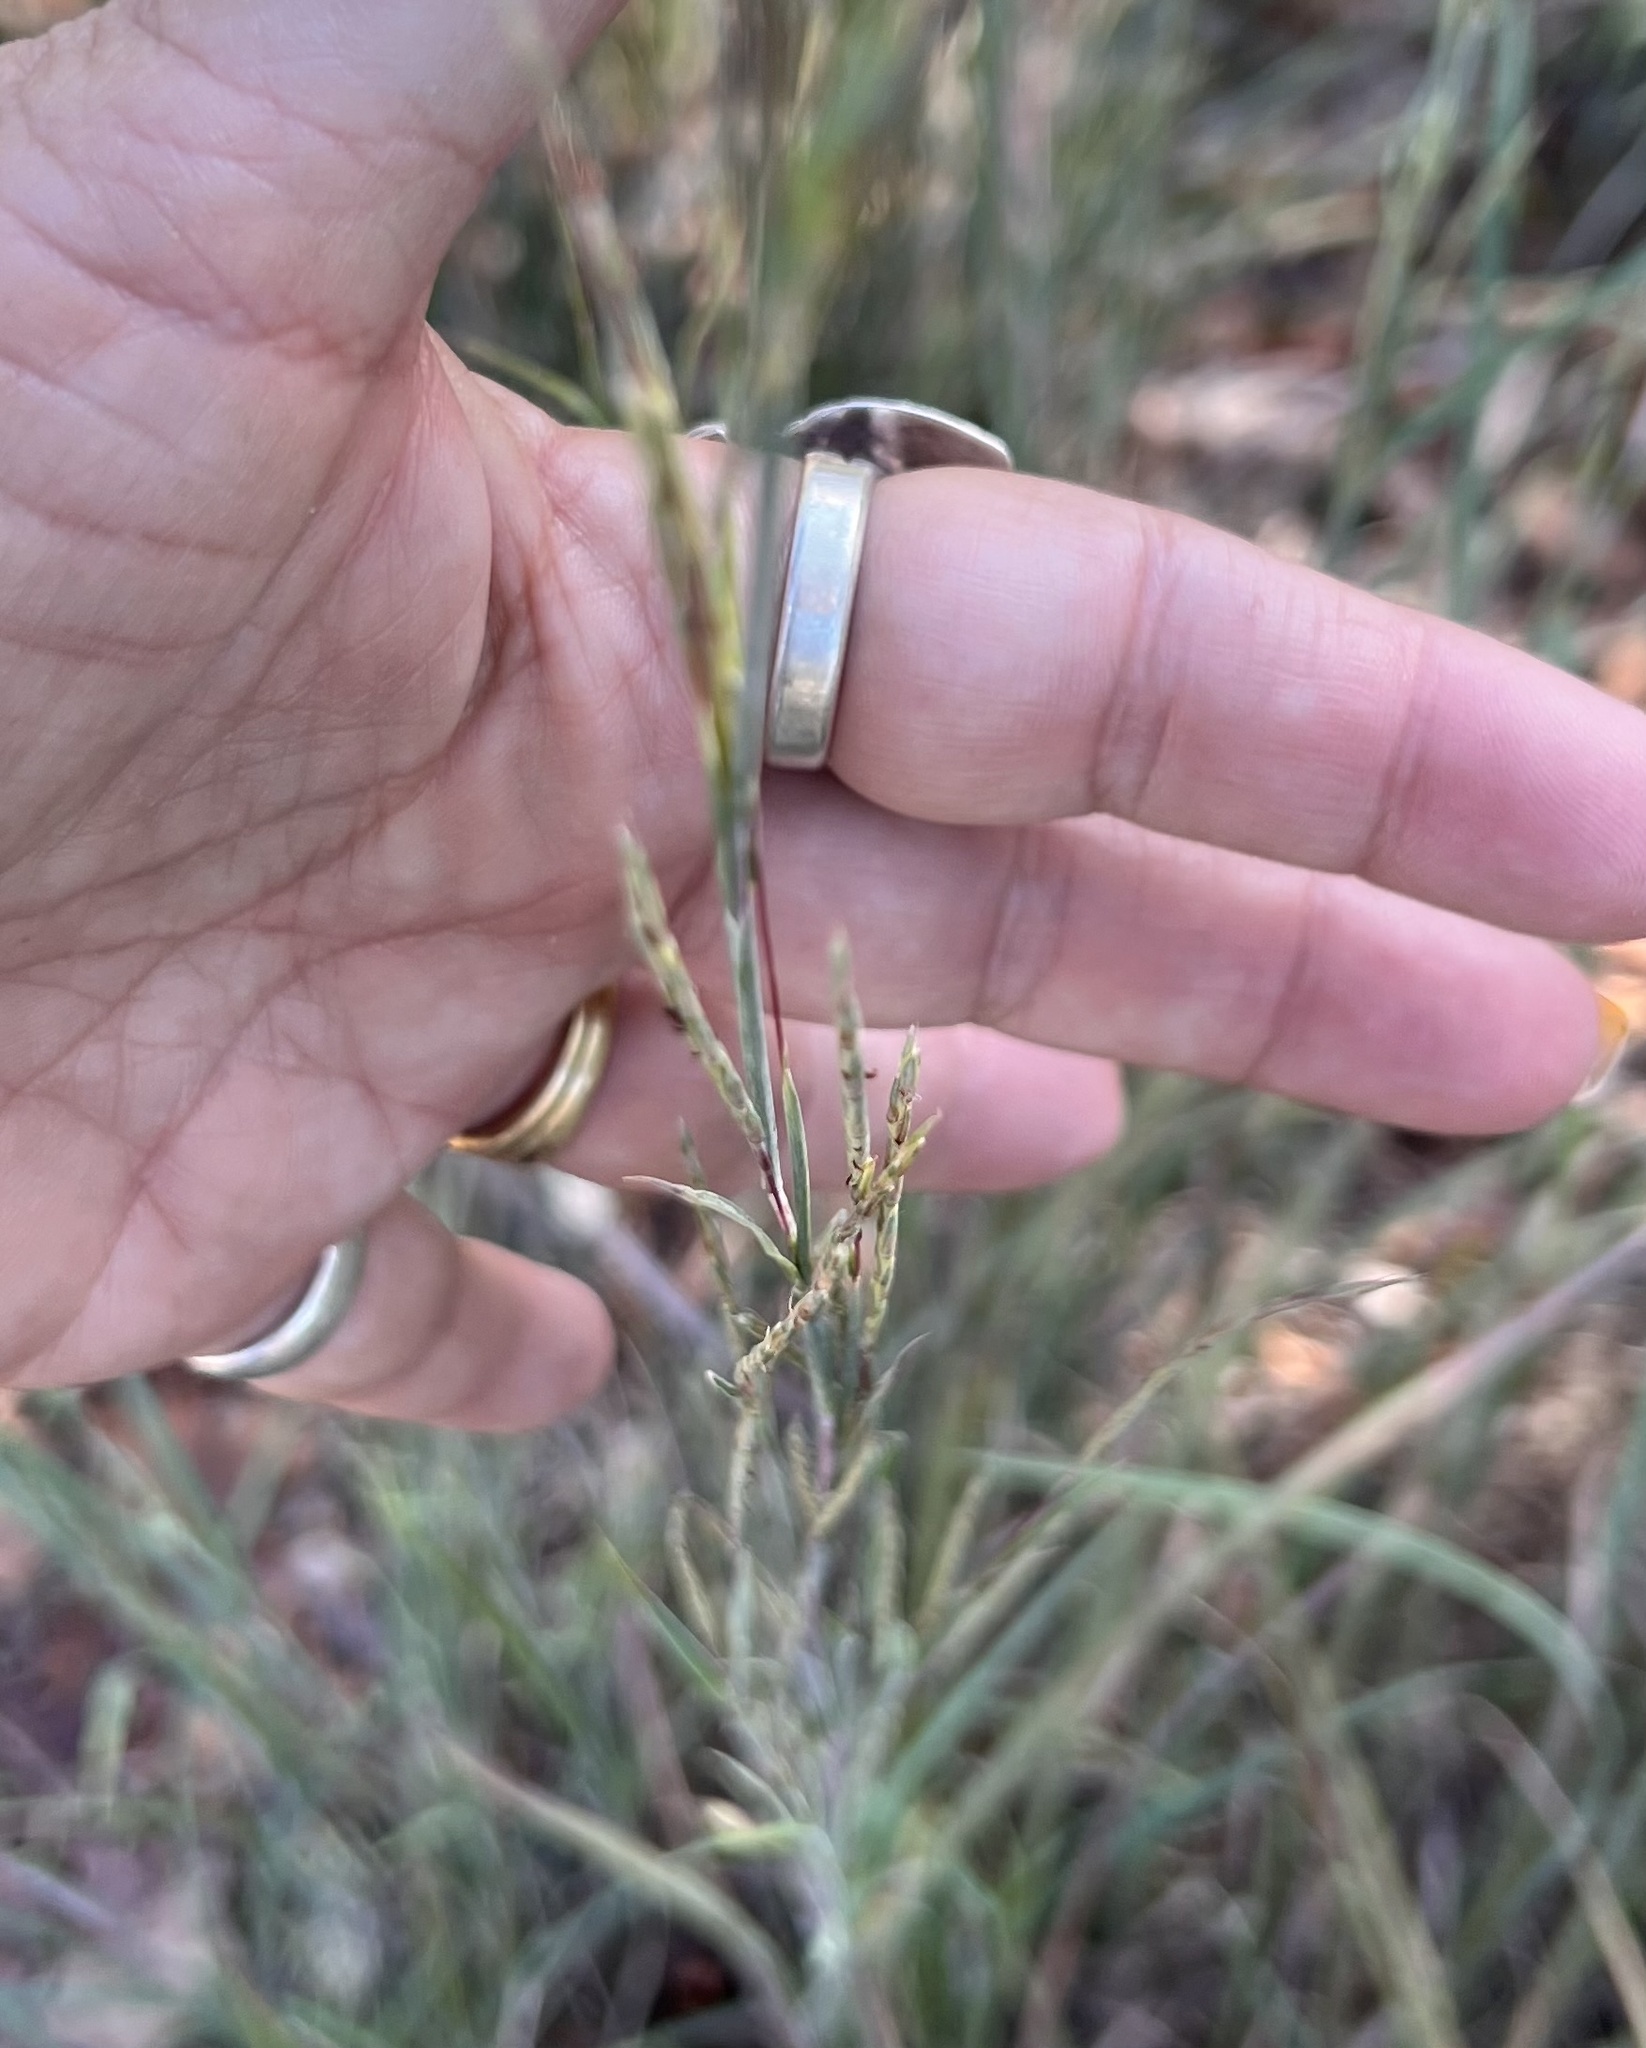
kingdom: Plantae
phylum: Tracheophyta
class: Liliopsida
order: Poales
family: Poaceae
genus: Schizachyrium
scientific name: Schizachyrium scoparium
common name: Little bluestem
